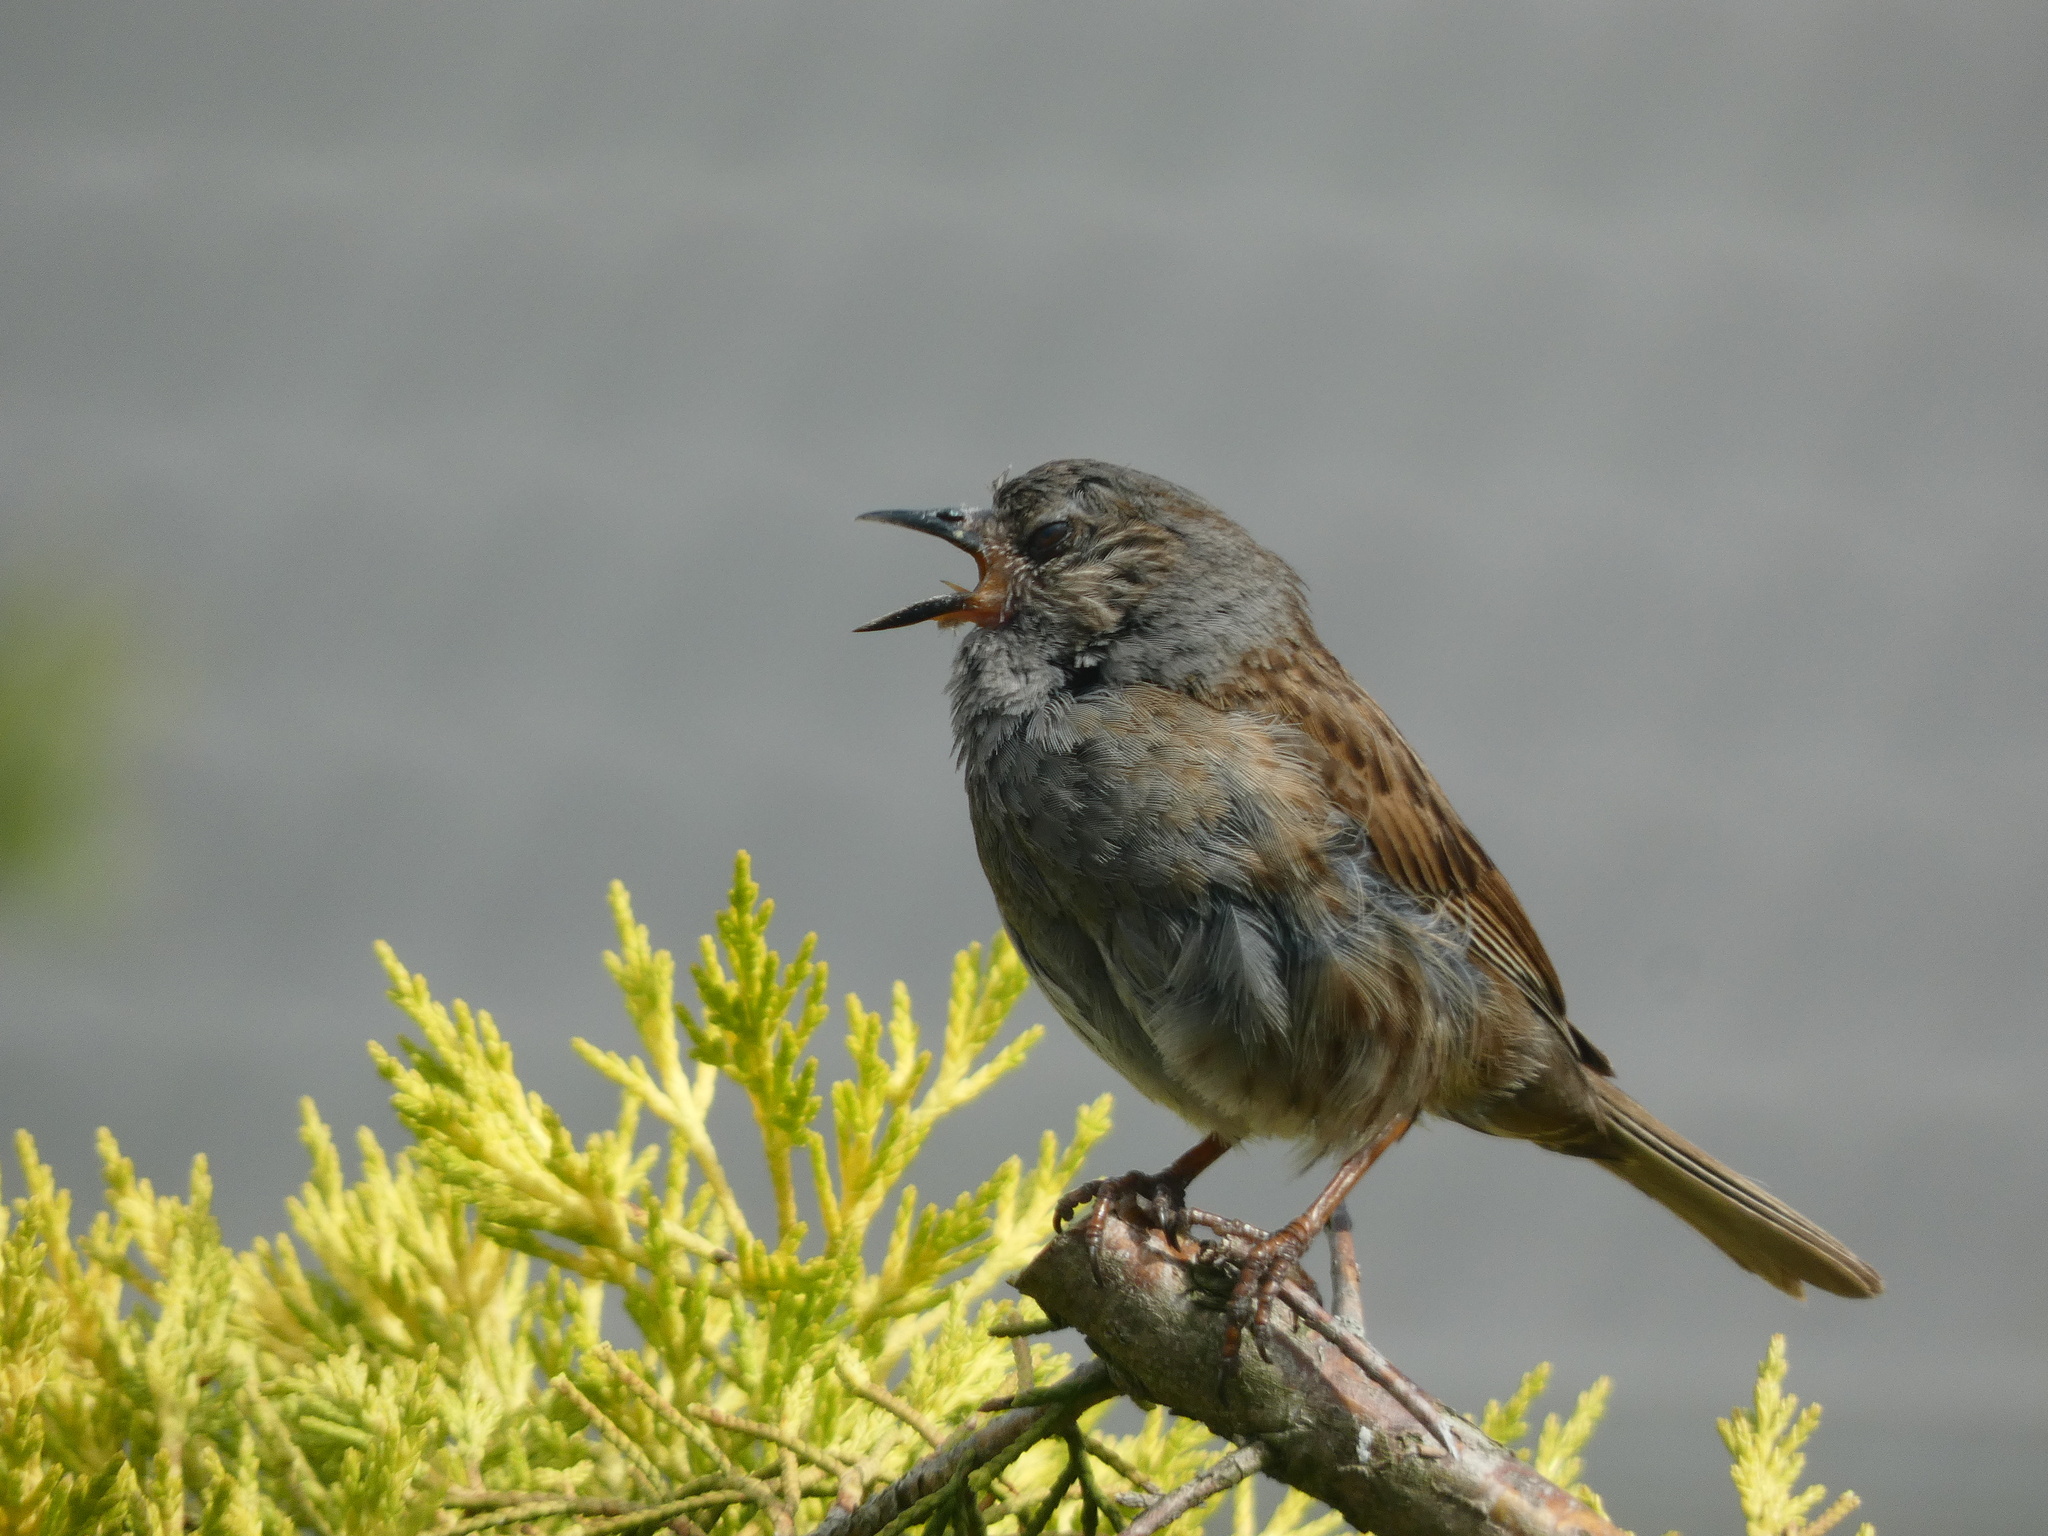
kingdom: Animalia
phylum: Chordata
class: Aves
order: Passeriformes
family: Prunellidae
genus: Prunella
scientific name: Prunella modularis
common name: Dunnock
